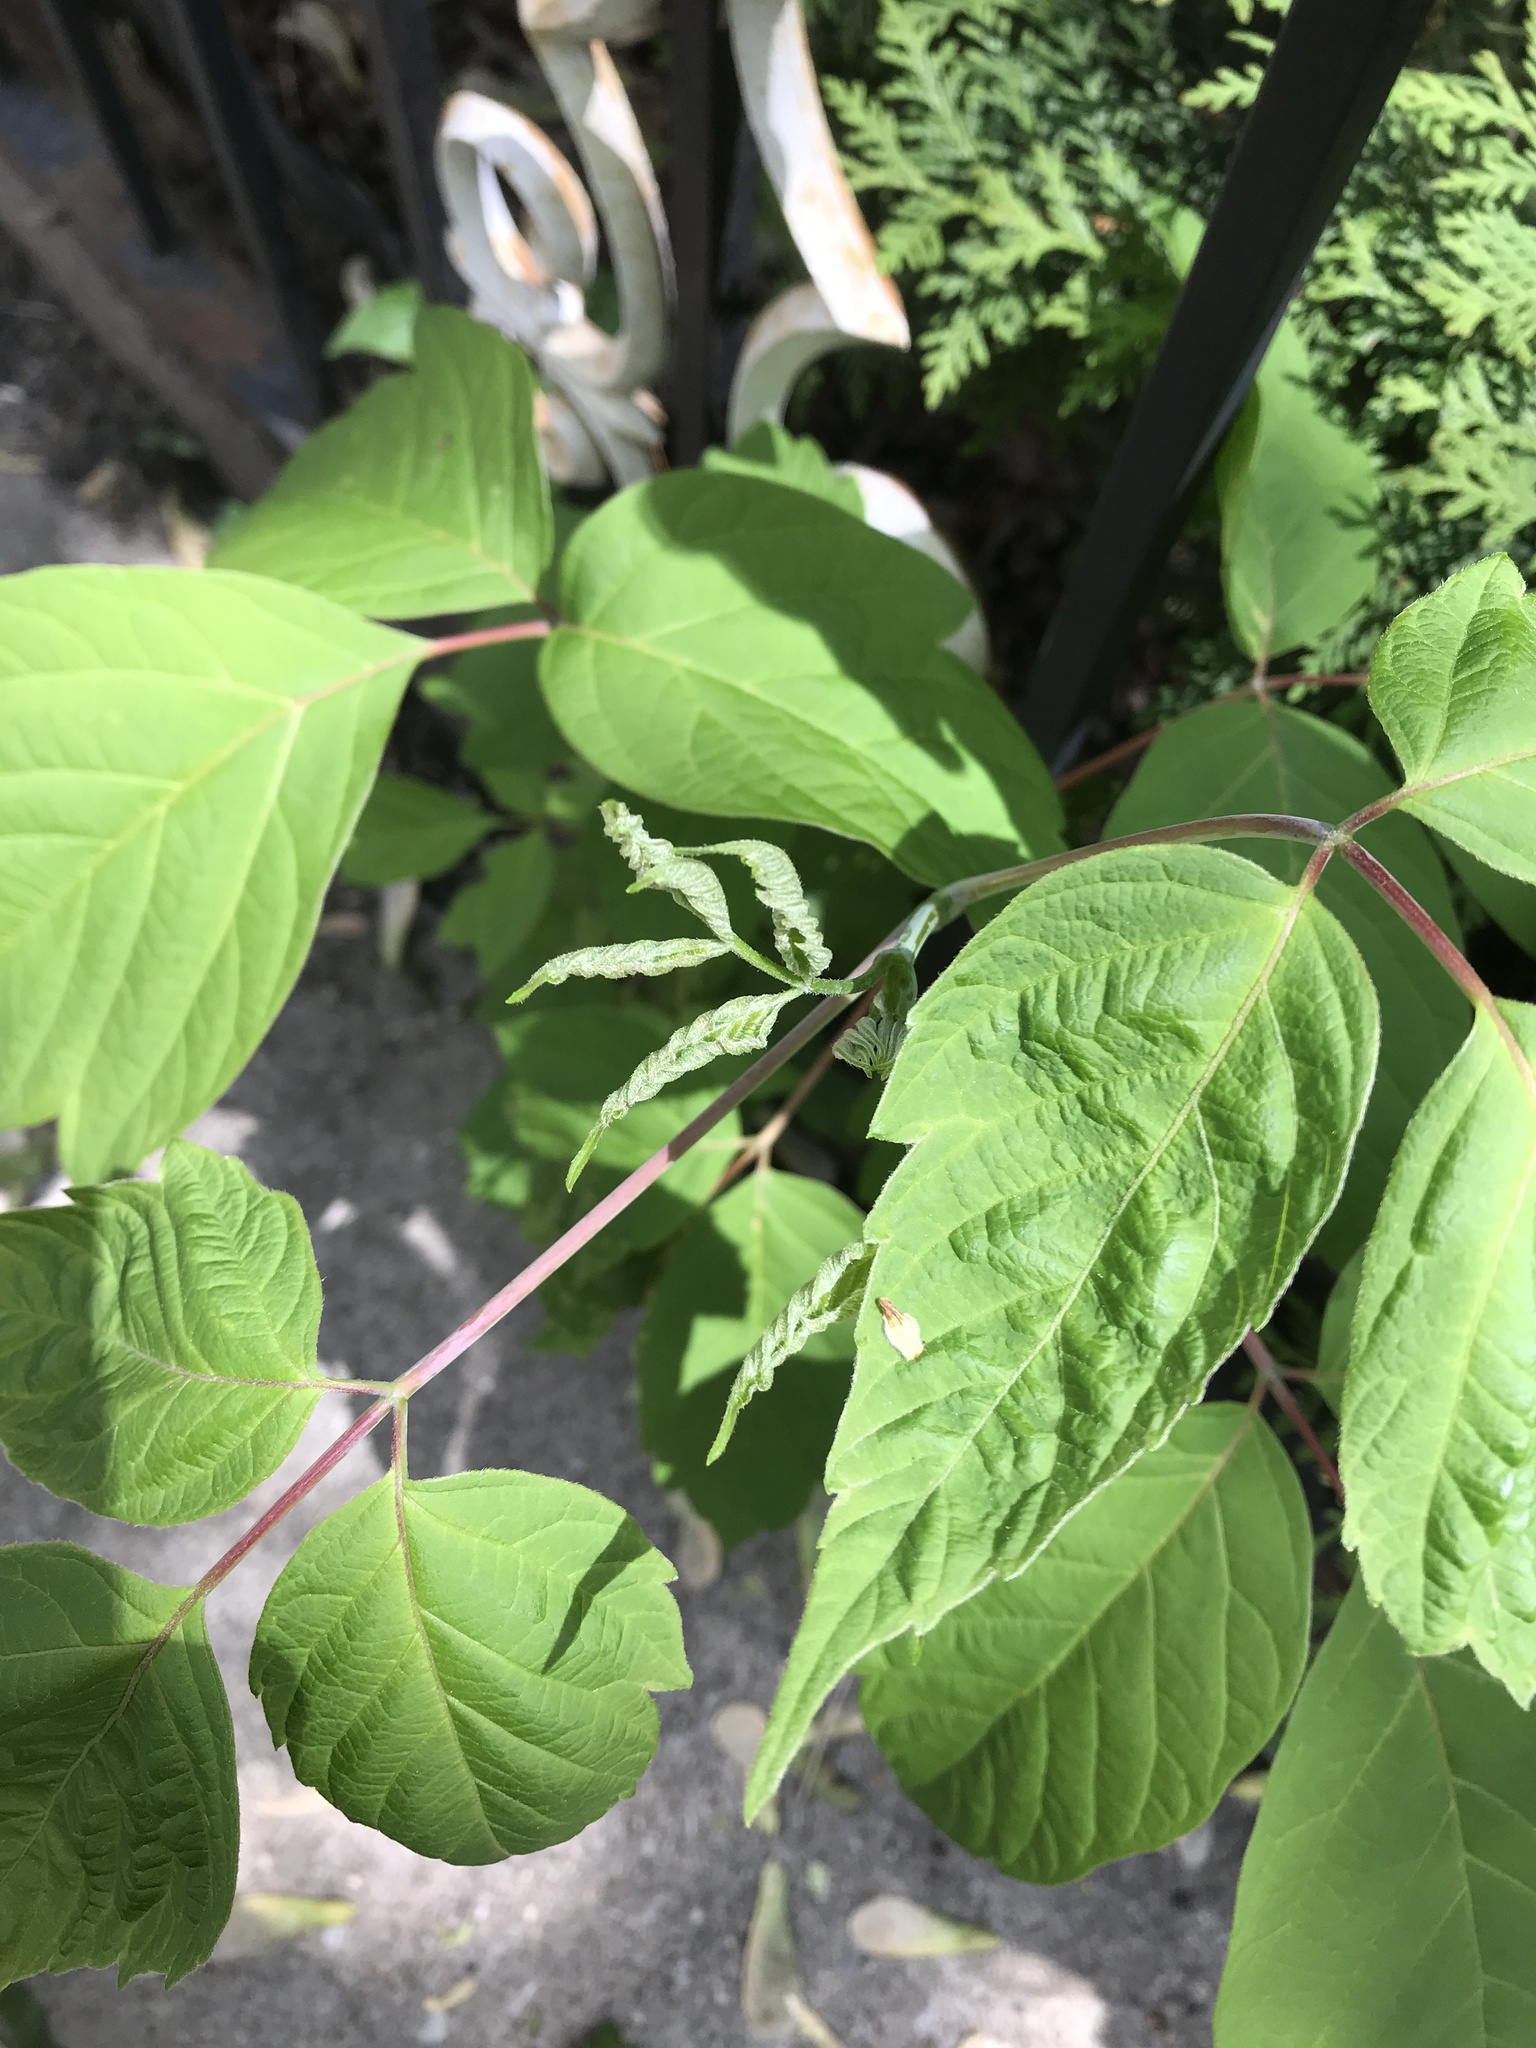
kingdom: Plantae
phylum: Tracheophyta
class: Magnoliopsida
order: Sapindales
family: Sapindaceae
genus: Acer
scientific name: Acer negundo
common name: Ashleaf maple
